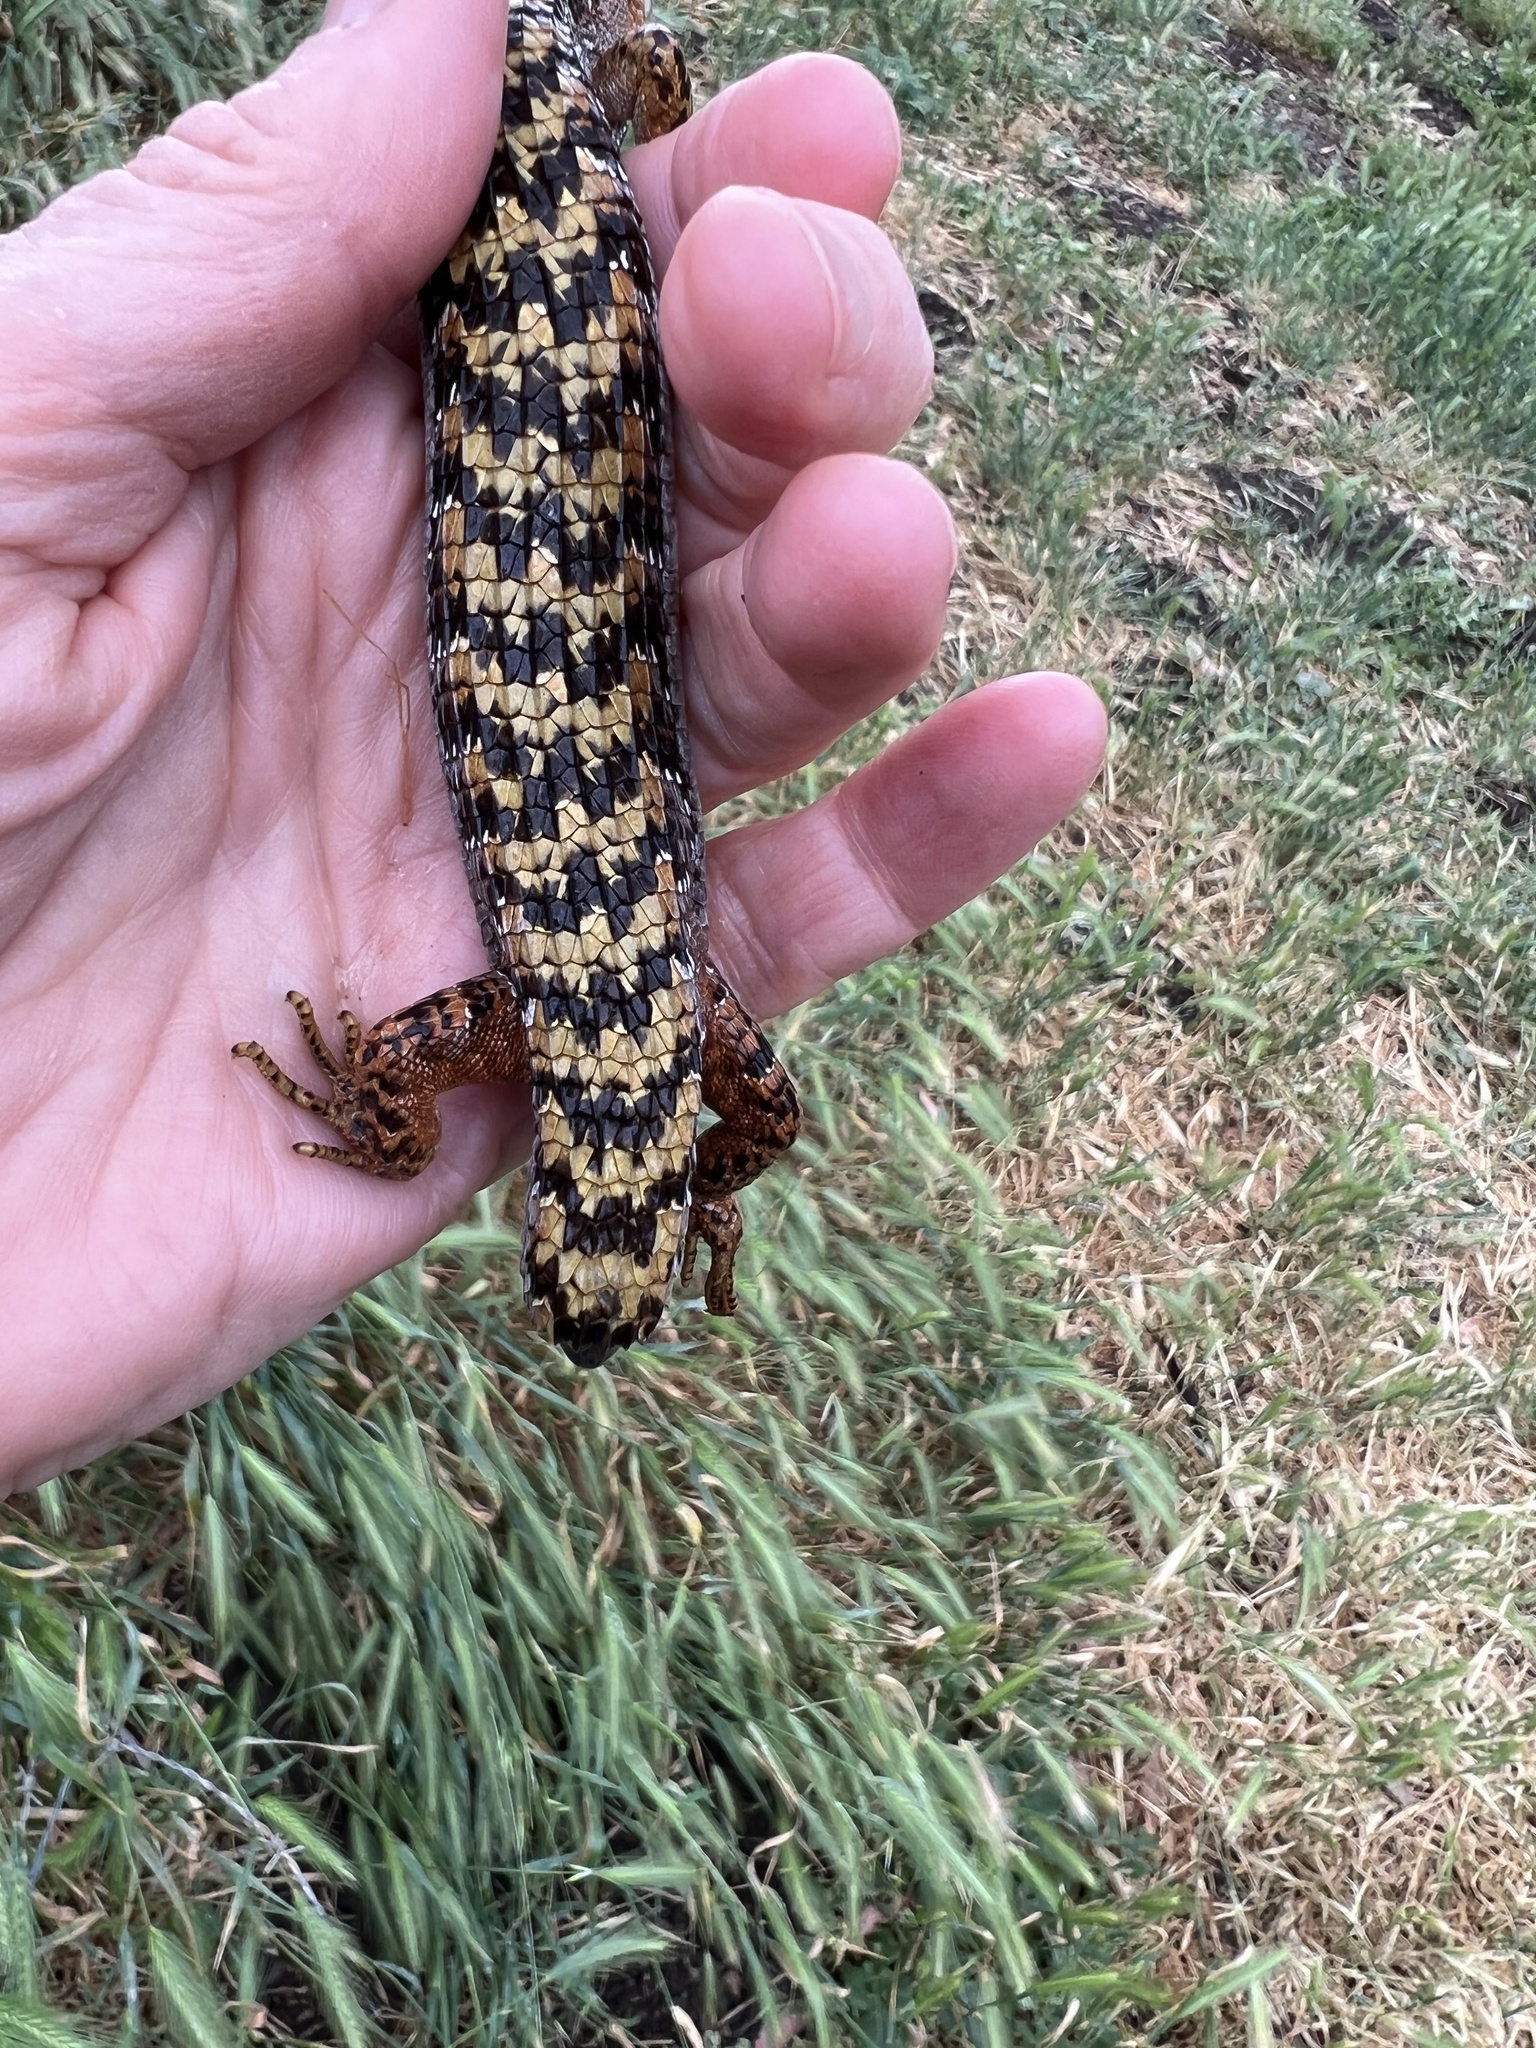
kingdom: Animalia
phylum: Chordata
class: Squamata
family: Anguidae
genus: Elgaria
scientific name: Elgaria multicarinata
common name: Southern alligator lizard
